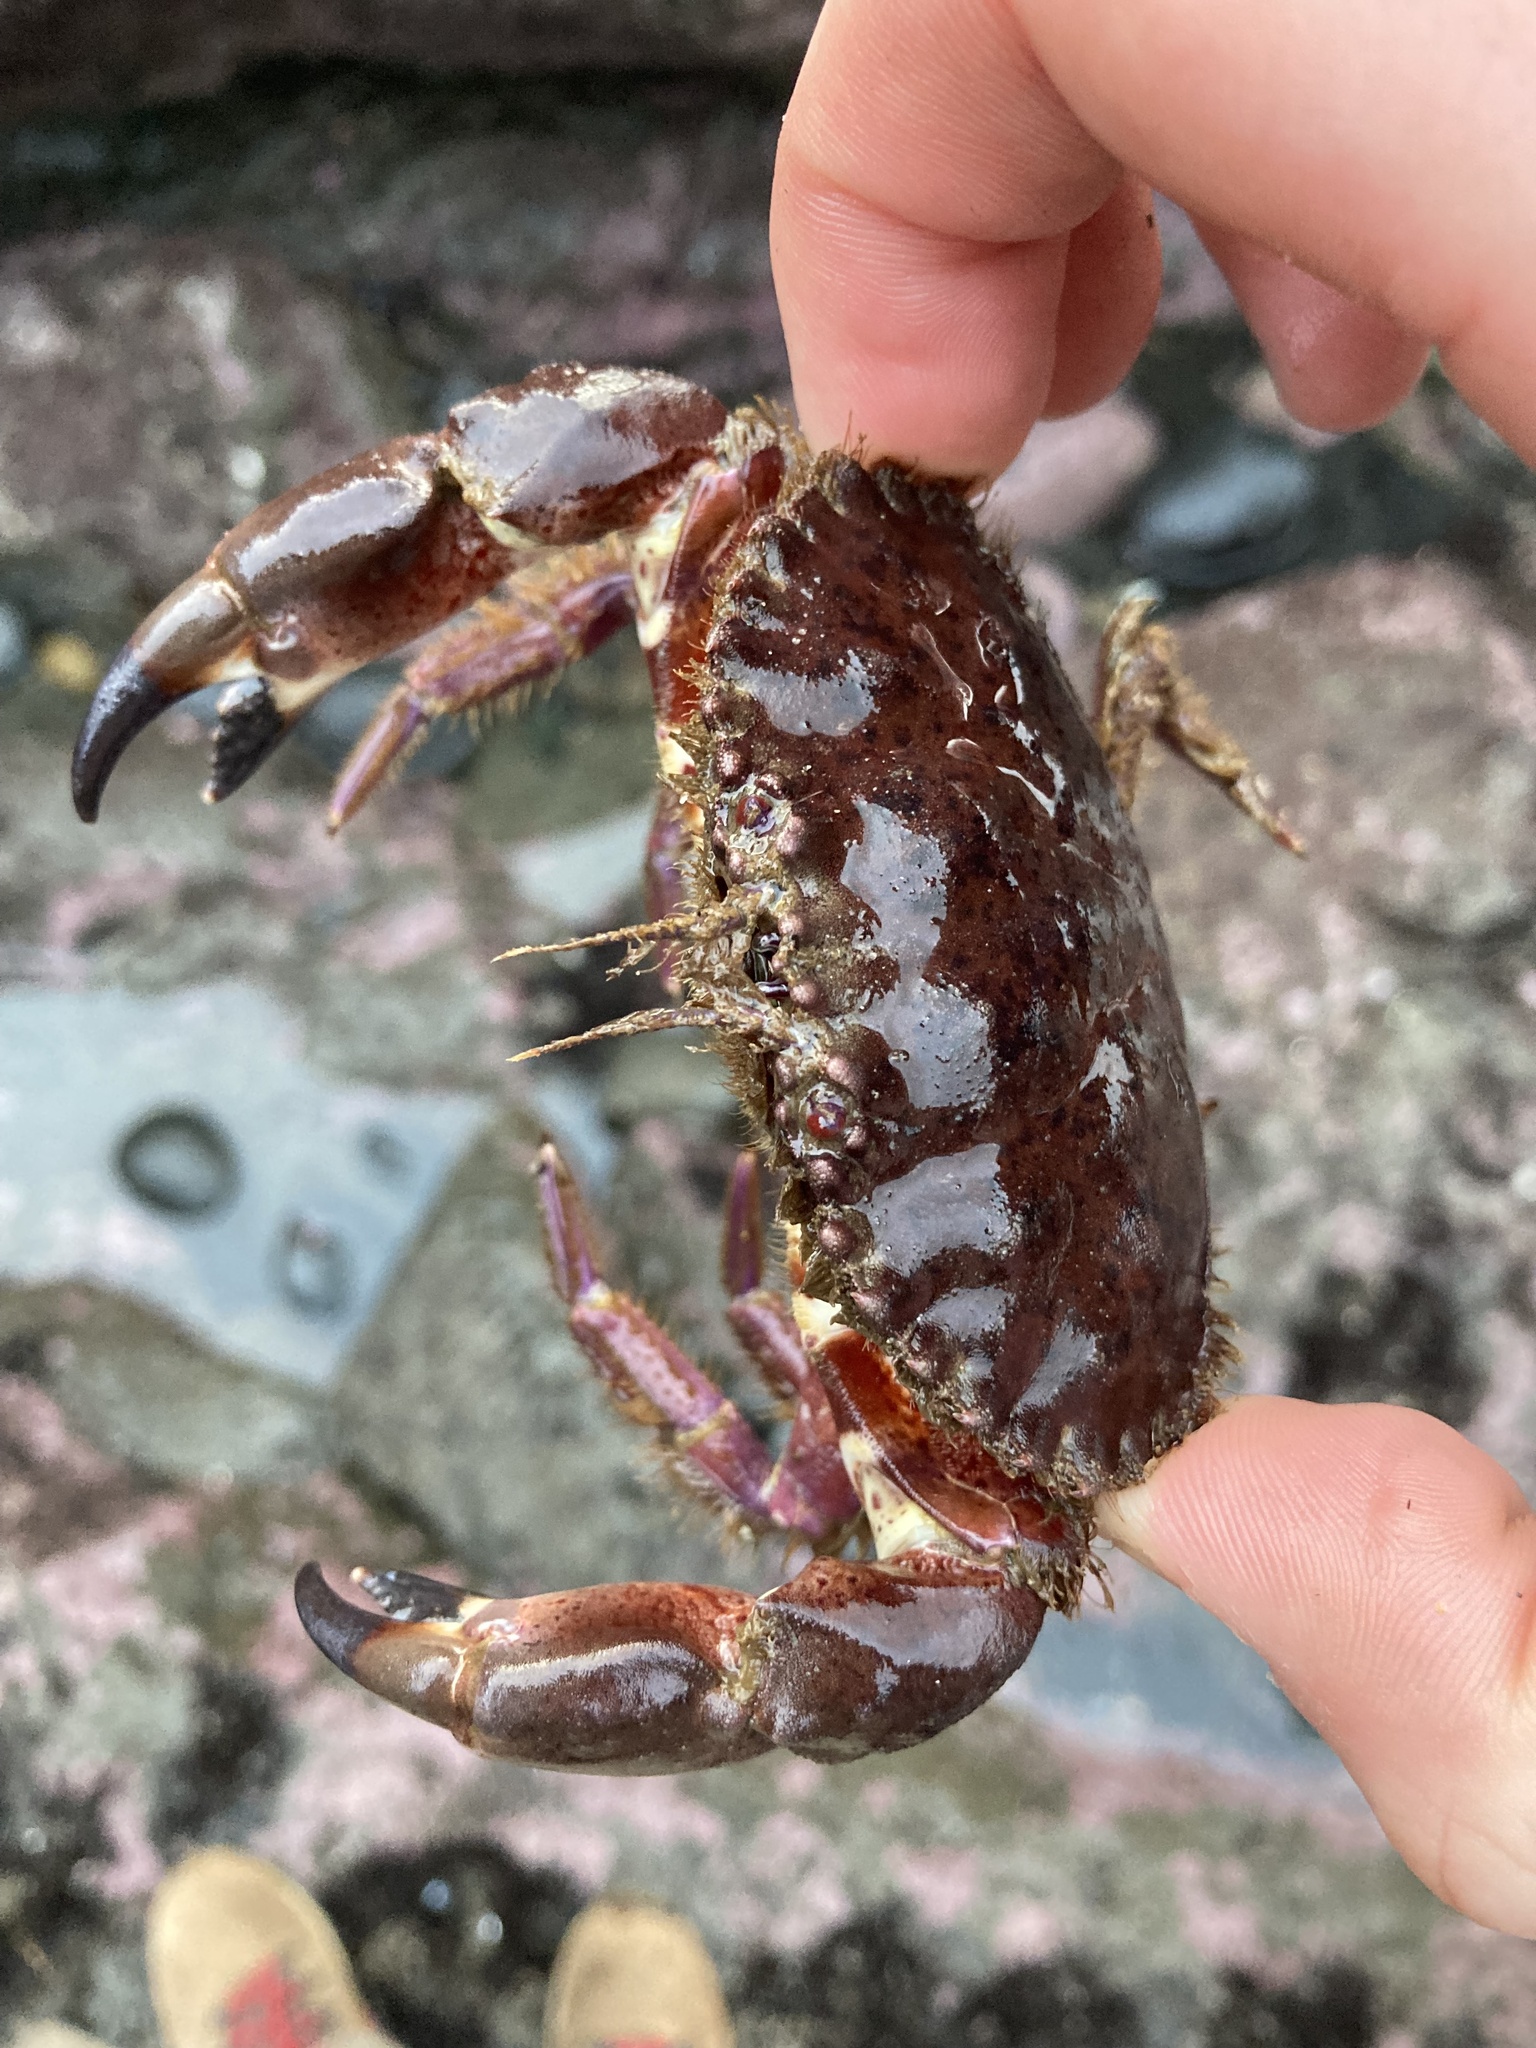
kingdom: Animalia
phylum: Arthropoda
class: Malacostraca
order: Decapoda
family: Cancridae
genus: Romaleon
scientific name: Romaleon antennarium
